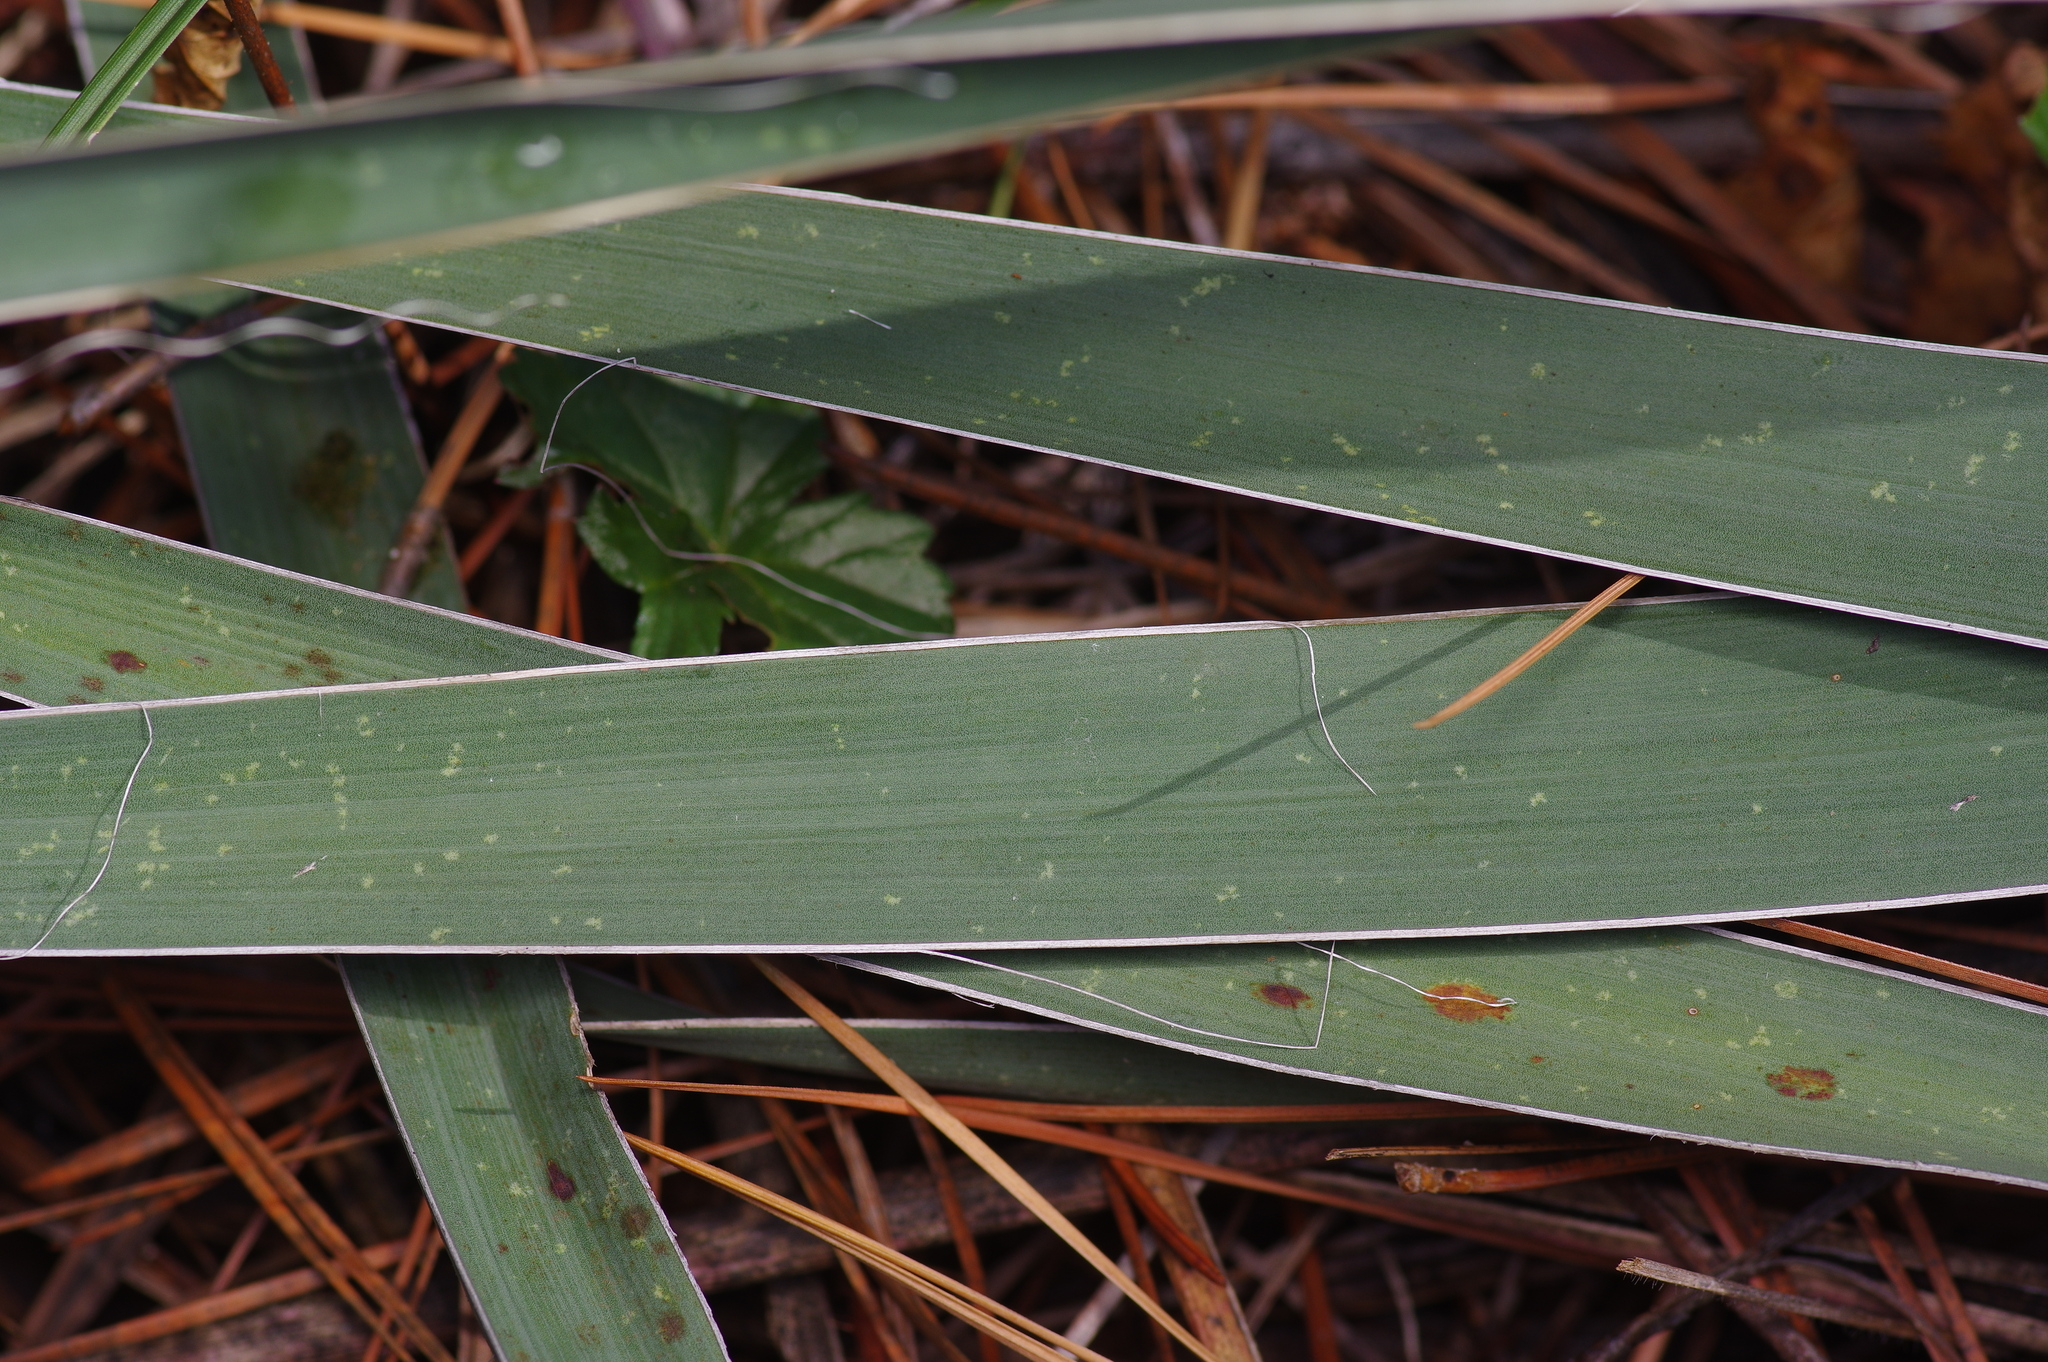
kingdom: Plantae
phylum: Tracheophyta
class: Liliopsida
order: Asparagales
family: Asparagaceae
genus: Yucca
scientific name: Yucca flaccida
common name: Adam's-needle
